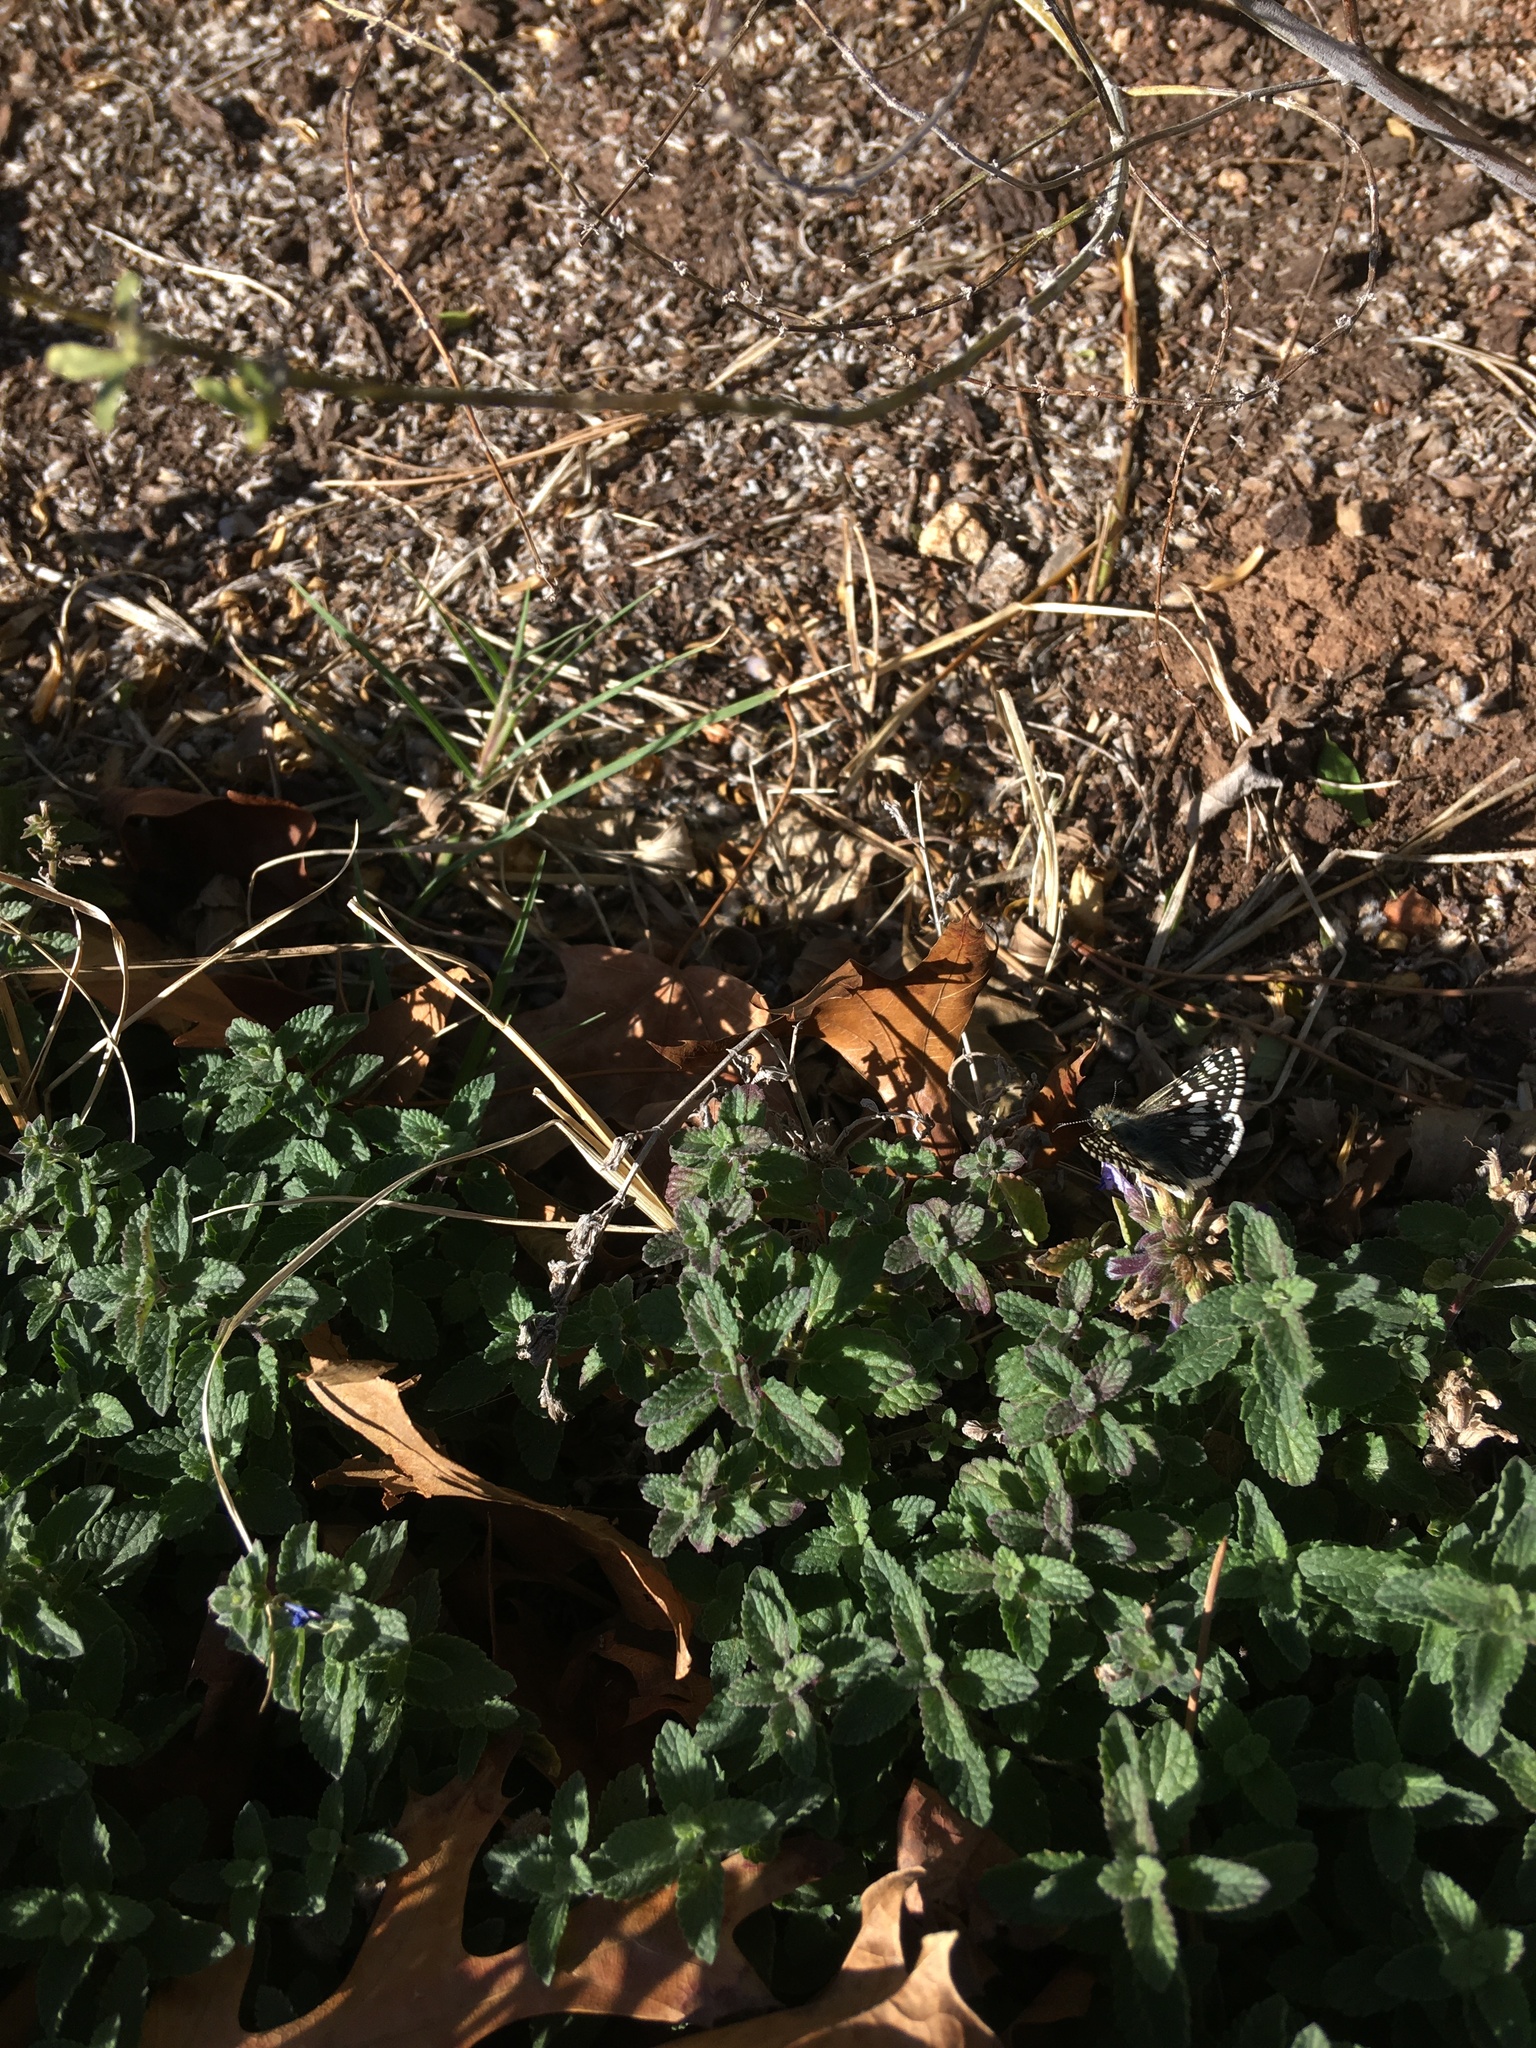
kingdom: Animalia
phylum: Arthropoda
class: Insecta
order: Lepidoptera
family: Hesperiidae
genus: Burnsius
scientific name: Burnsius communis
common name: Common checkered-skipper
